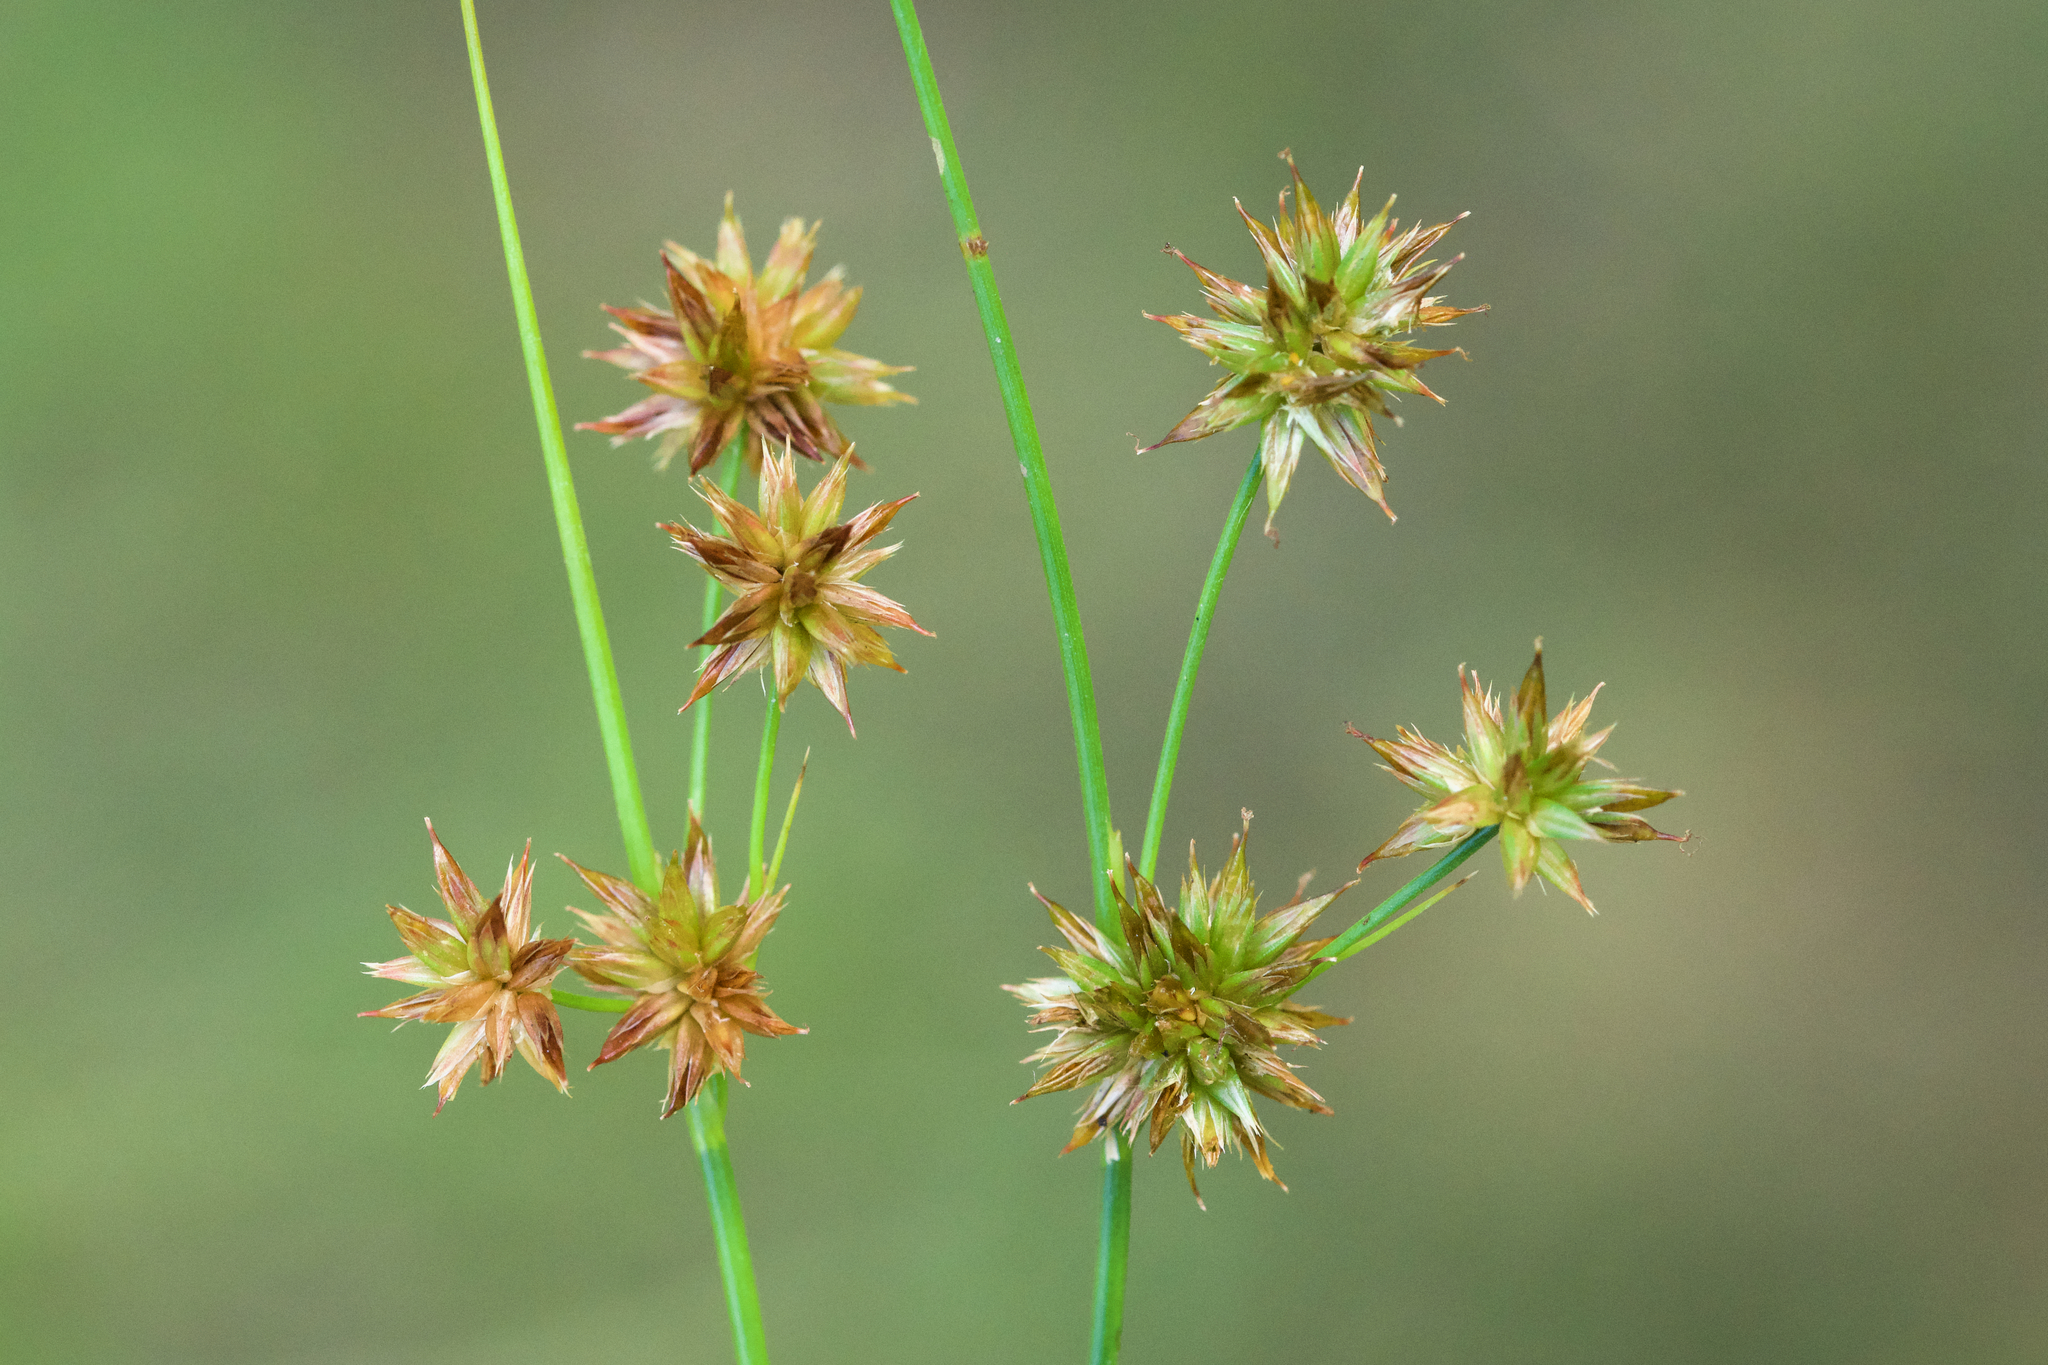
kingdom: Plantae
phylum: Tracheophyta
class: Liliopsida
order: Poales
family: Juncaceae
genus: Juncus
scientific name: Juncus nodosus
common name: Knotted rush
